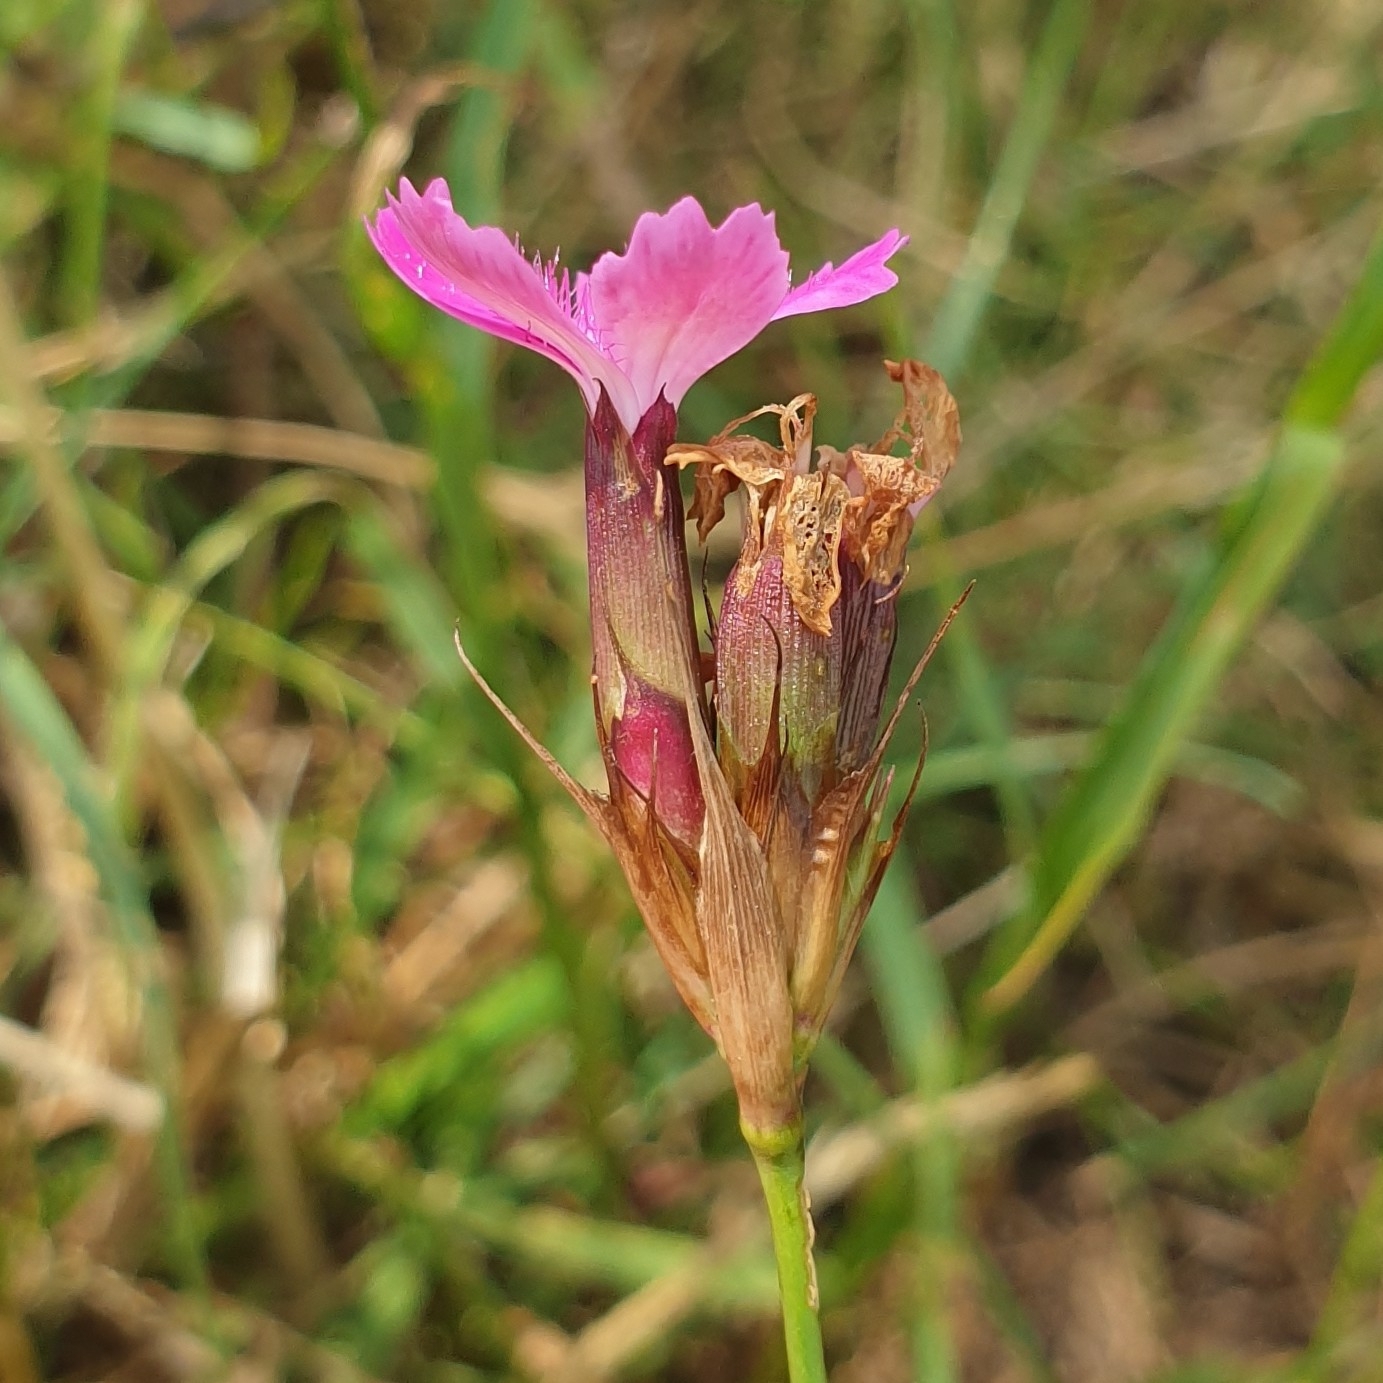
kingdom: Plantae
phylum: Tracheophyta
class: Magnoliopsida
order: Caryophyllales
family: Caryophyllaceae
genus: Dianthus
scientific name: Dianthus carthusianorum
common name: Carthusian pink
